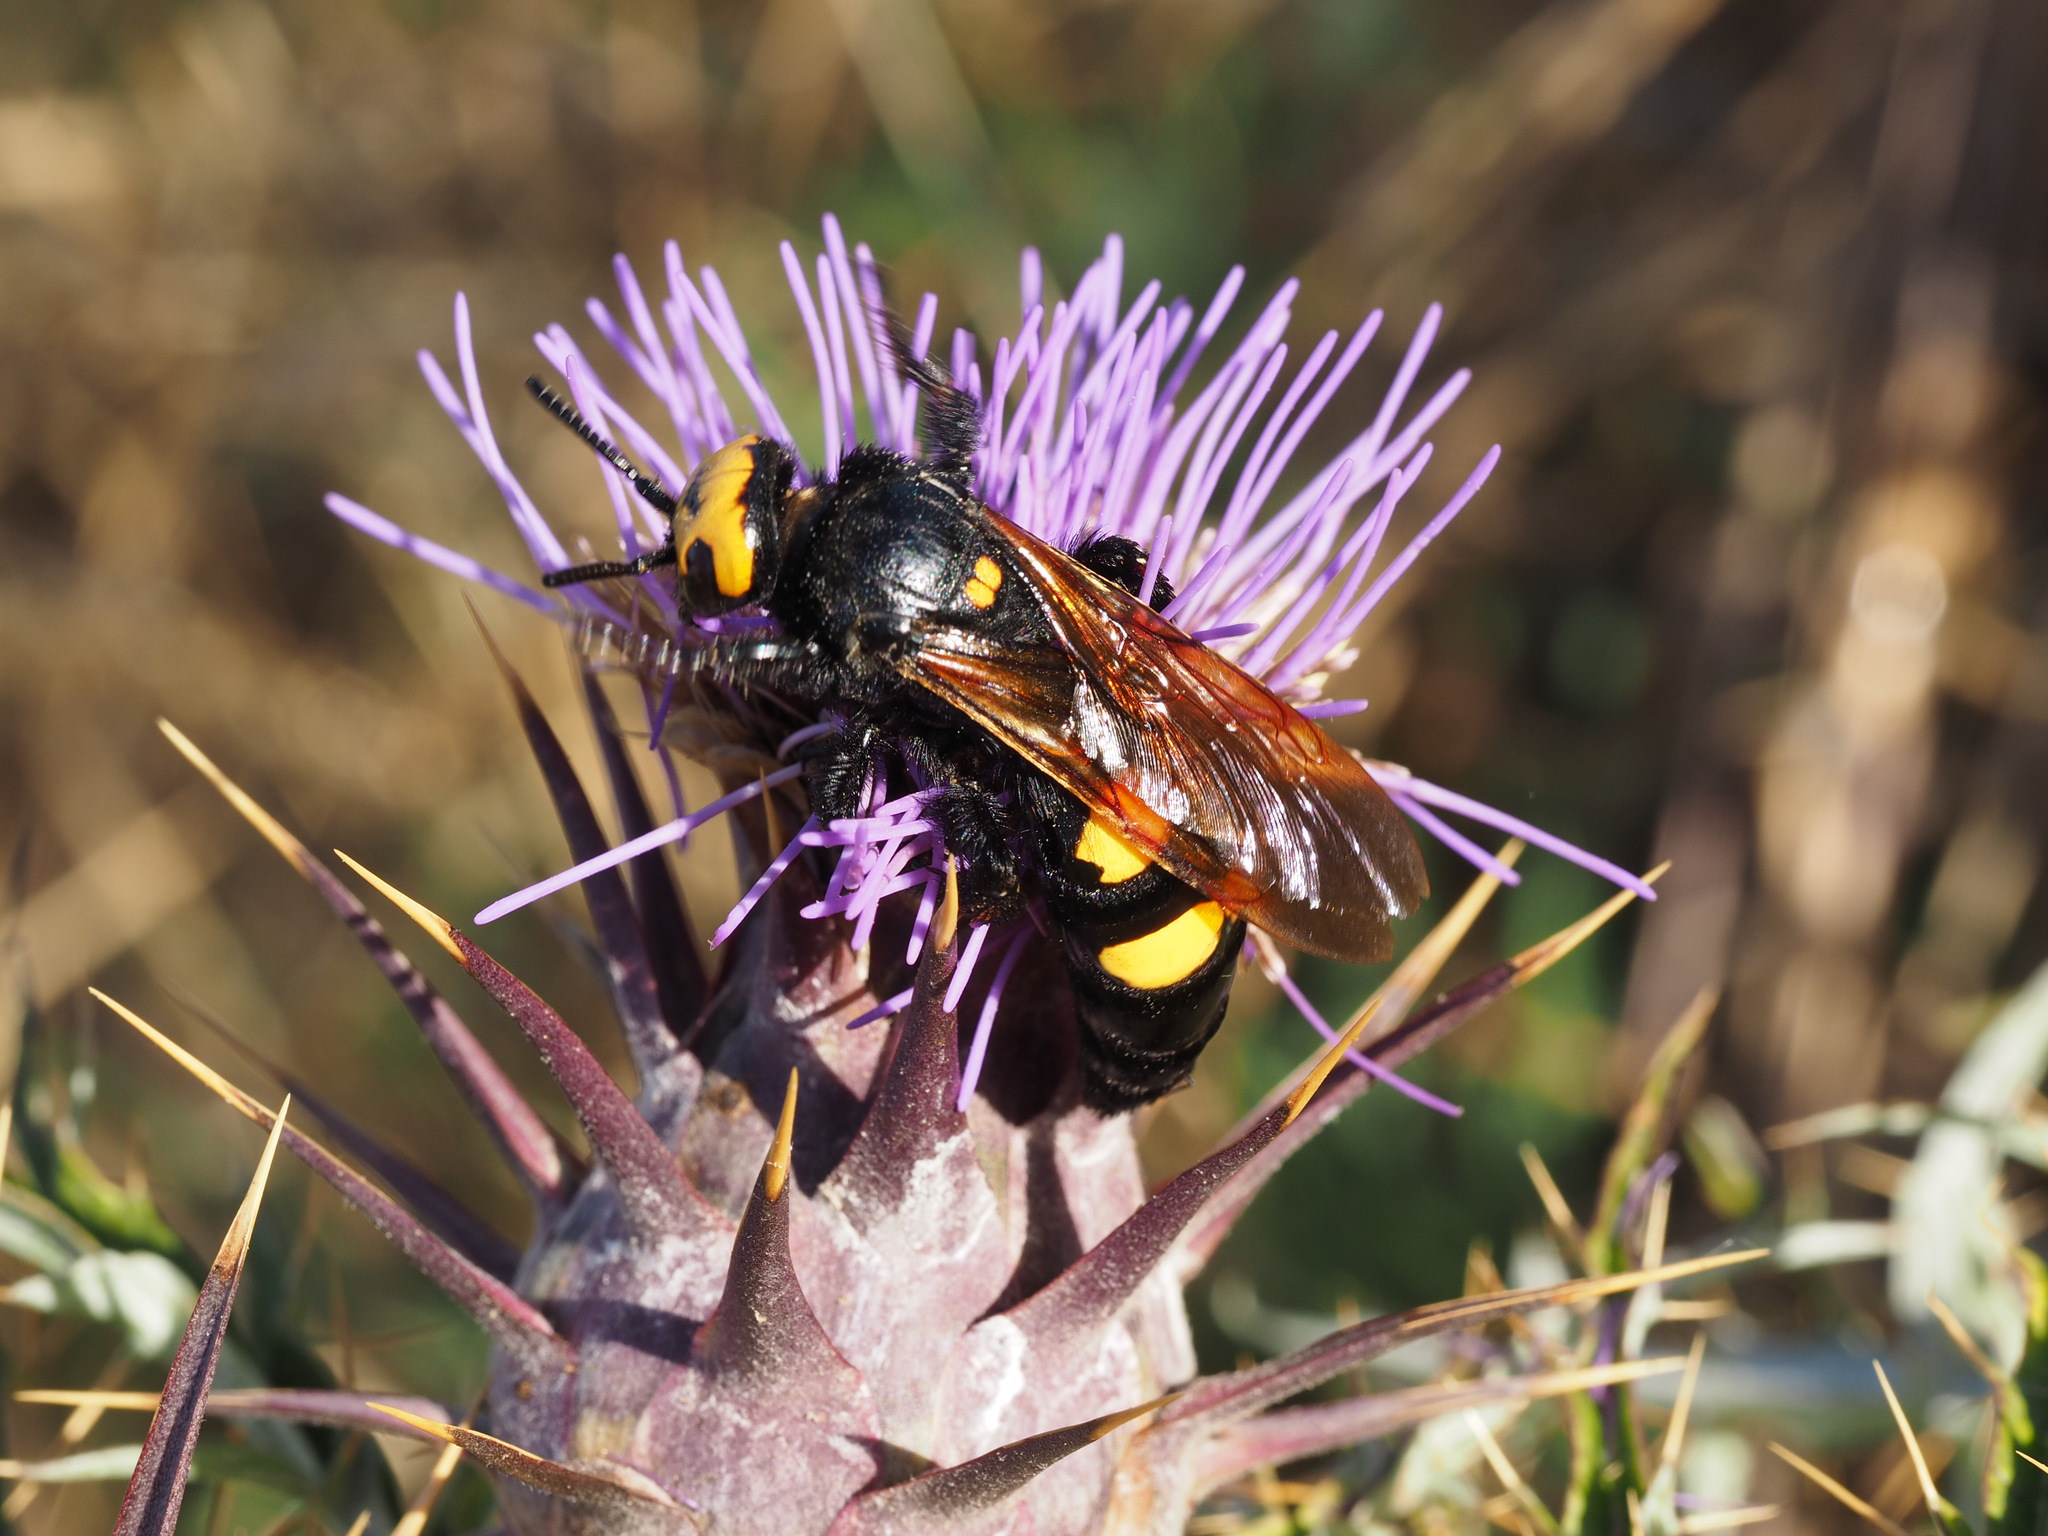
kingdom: Animalia
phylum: Arthropoda
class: Insecta
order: Hymenoptera
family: Scoliidae
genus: Megascolia
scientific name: Megascolia maculata
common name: Mammoth wasp
